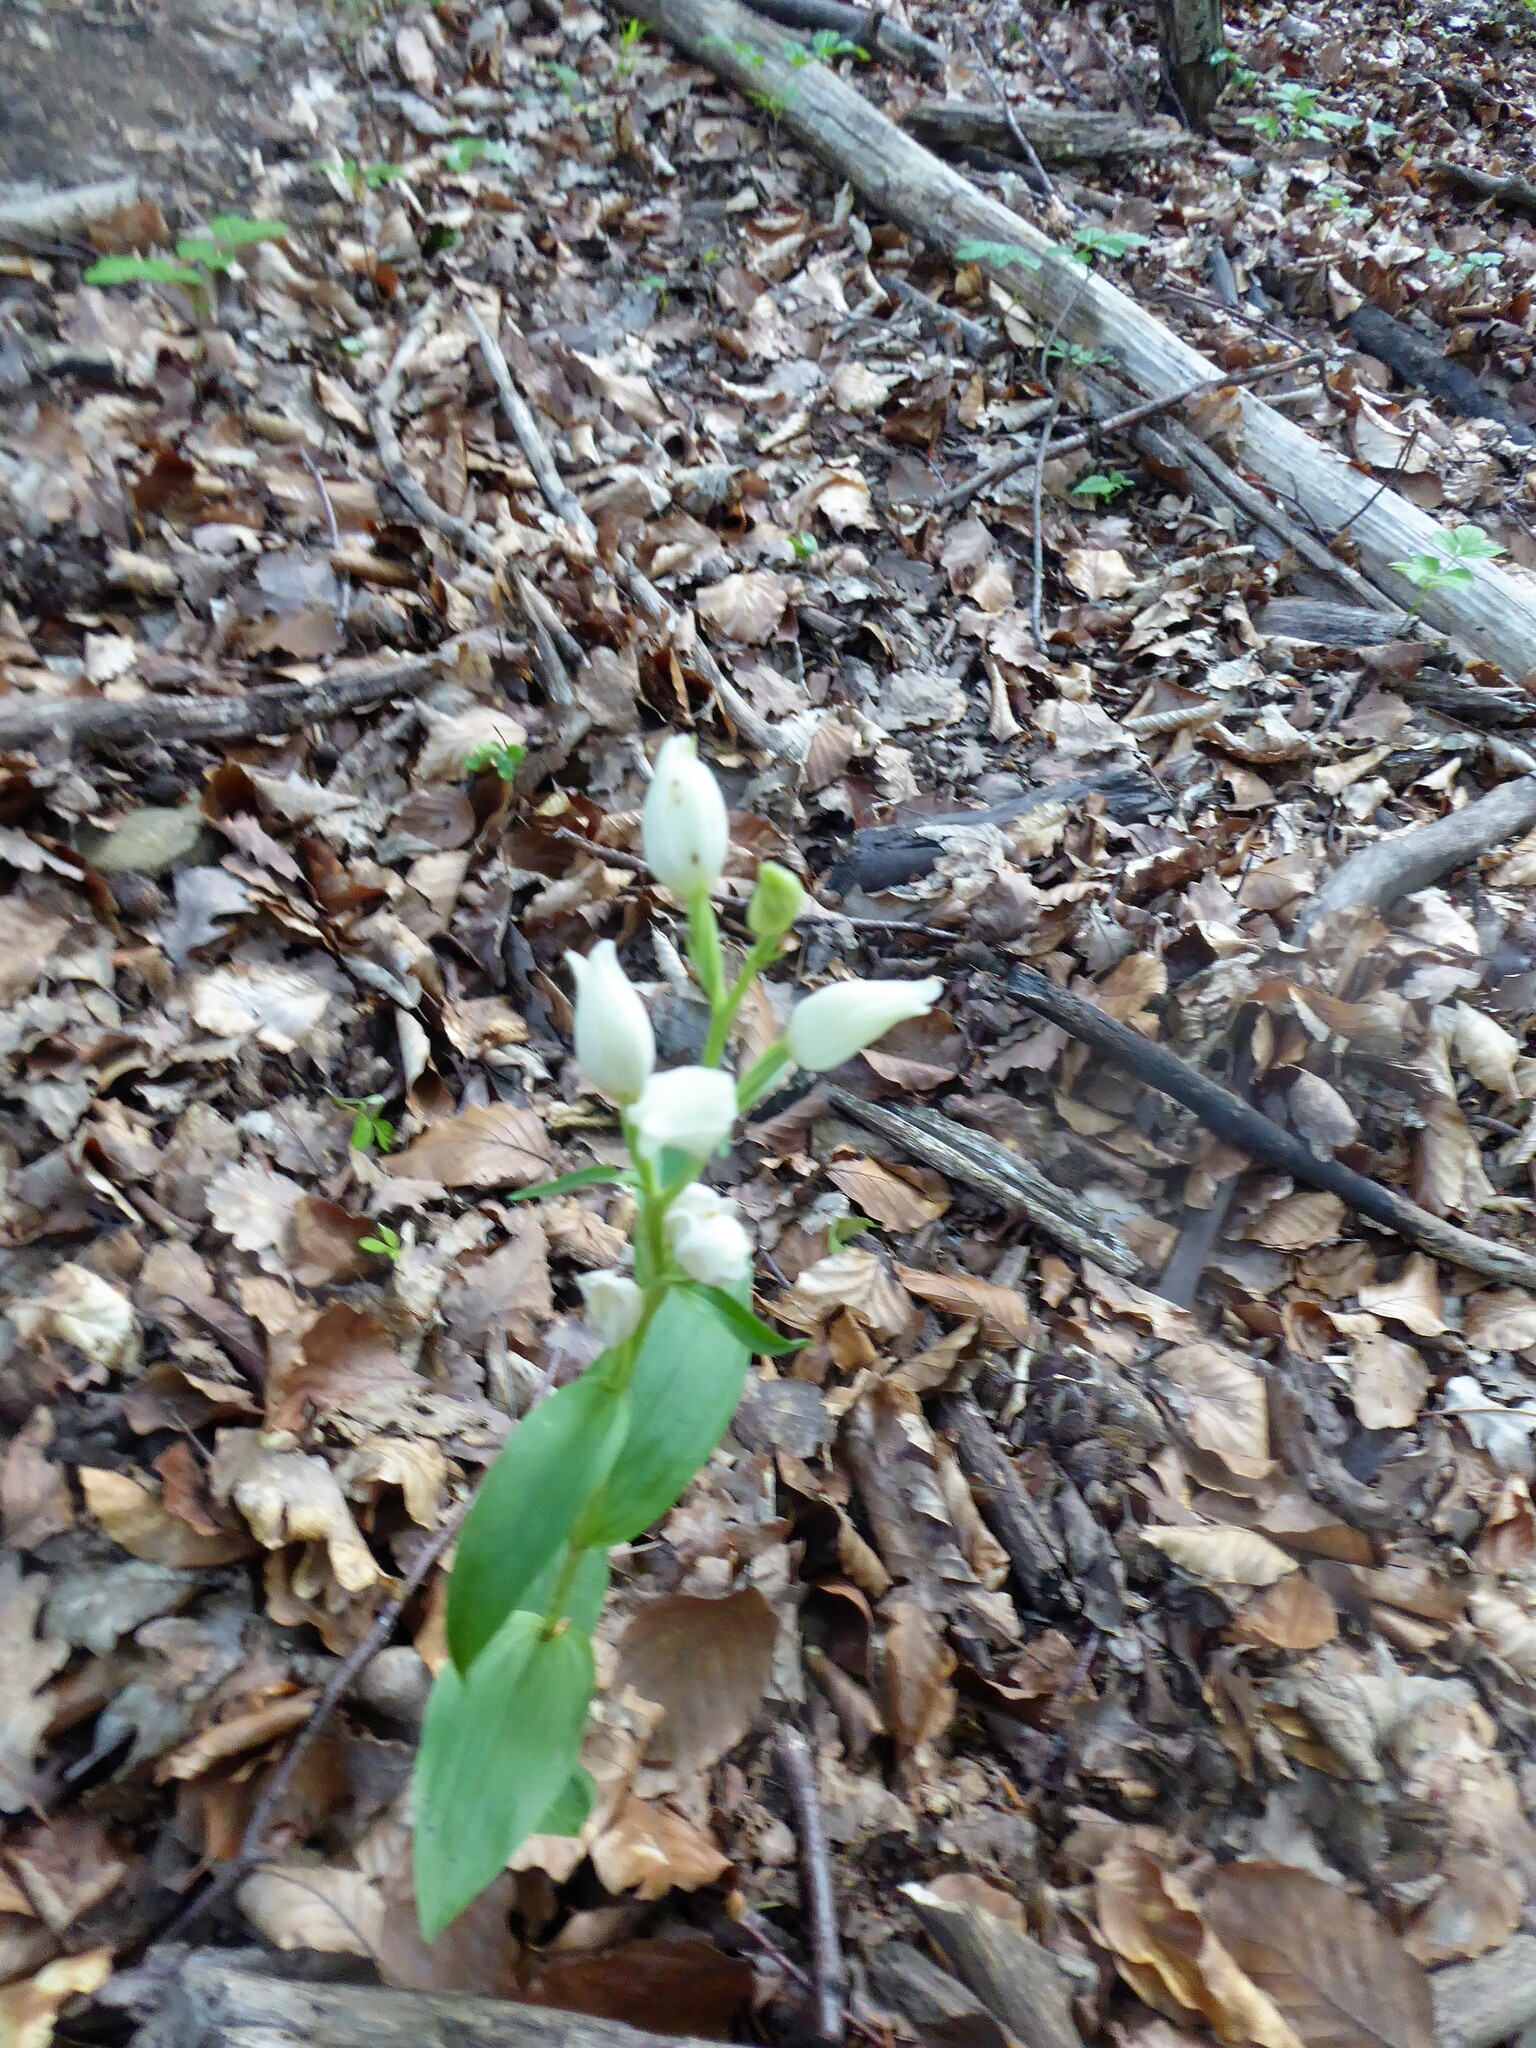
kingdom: Plantae
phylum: Tracheophyta
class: Liliopsida
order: Asparagales
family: Orchidaceae
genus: Cephalanthera
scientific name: Cephalanthera damasonium
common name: White helleborine
